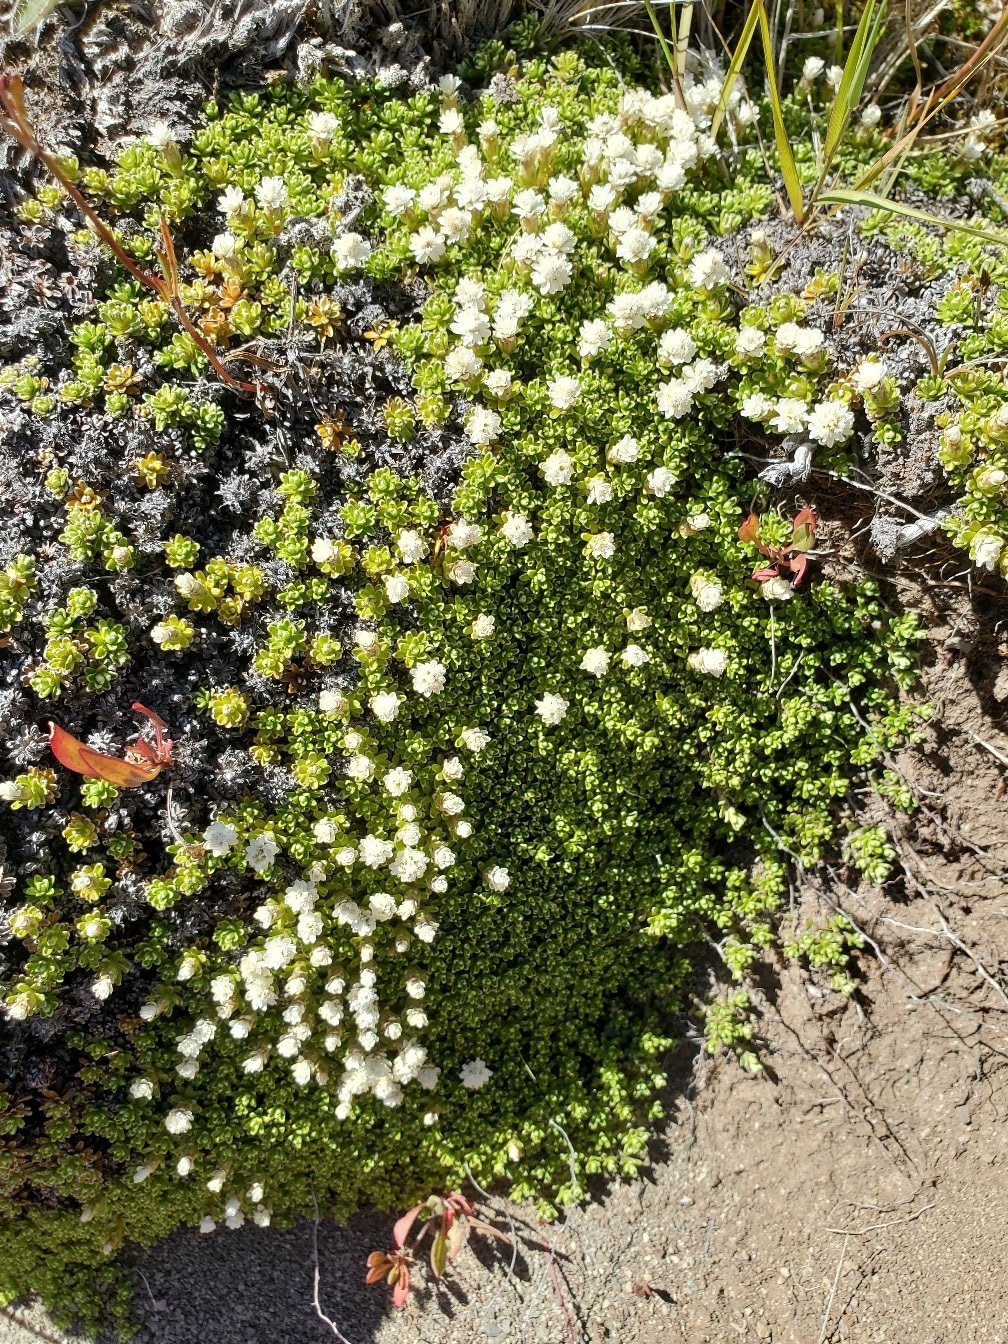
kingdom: Plantae
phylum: Tracheophyta
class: Magnoliopsida
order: Asterales
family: Asteraceae
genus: Raoulia
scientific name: Raoulia subsericea
